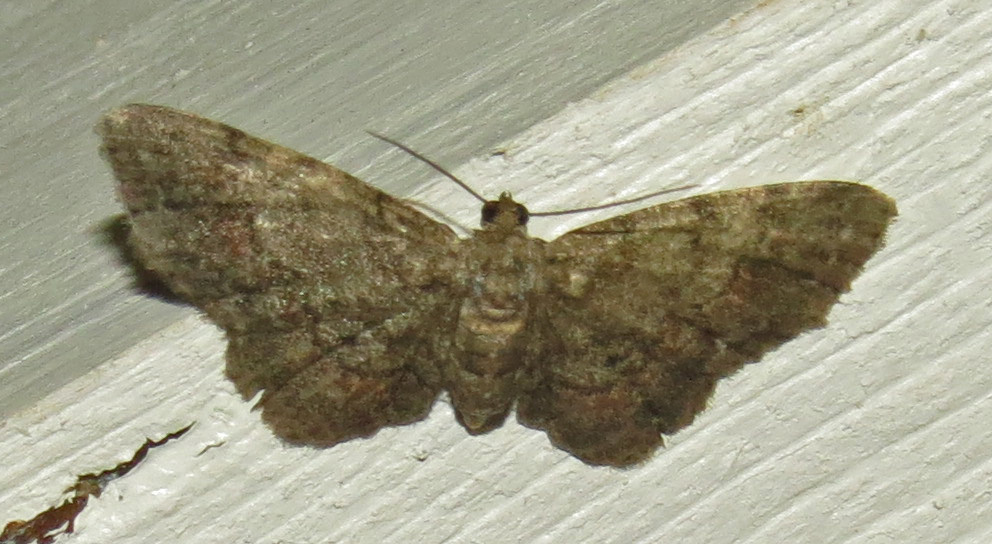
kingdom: Animalia
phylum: Arthropoda
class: Insecta
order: Lepidoptera
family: Geometridae
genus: Glenoides
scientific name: Glenoides texanaria
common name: Texas gray
